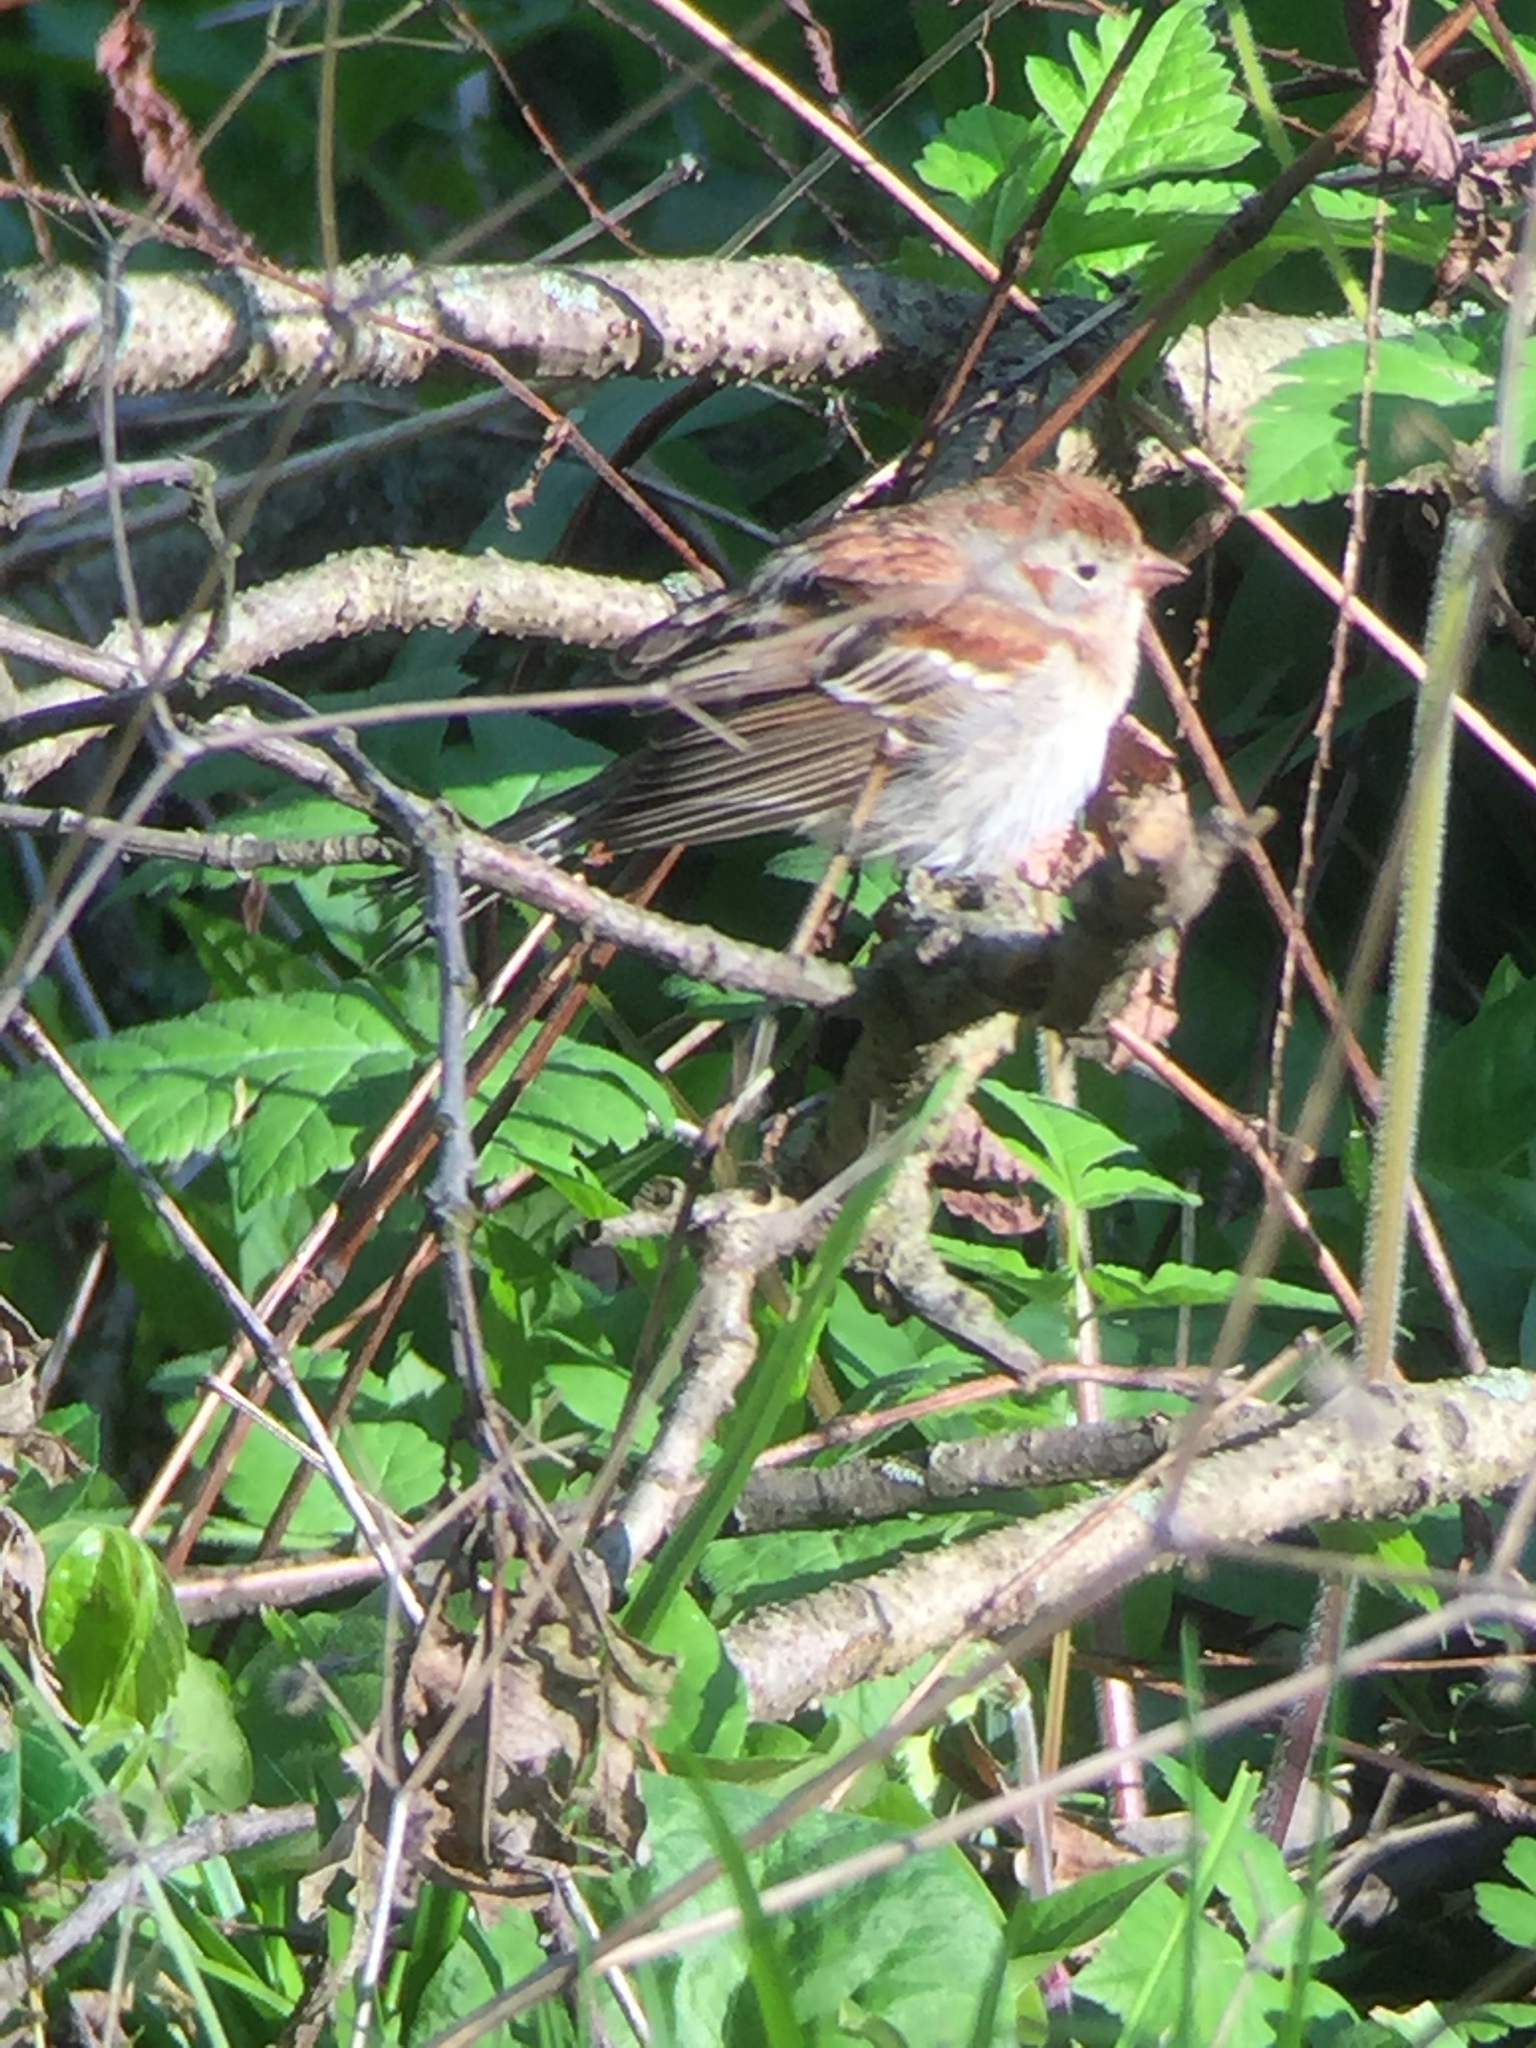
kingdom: Animalia
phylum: Chordata
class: Aves
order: Passeriformes
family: Passerellidae
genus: Spizella
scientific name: Spizella pusilla
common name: Field sparrow
